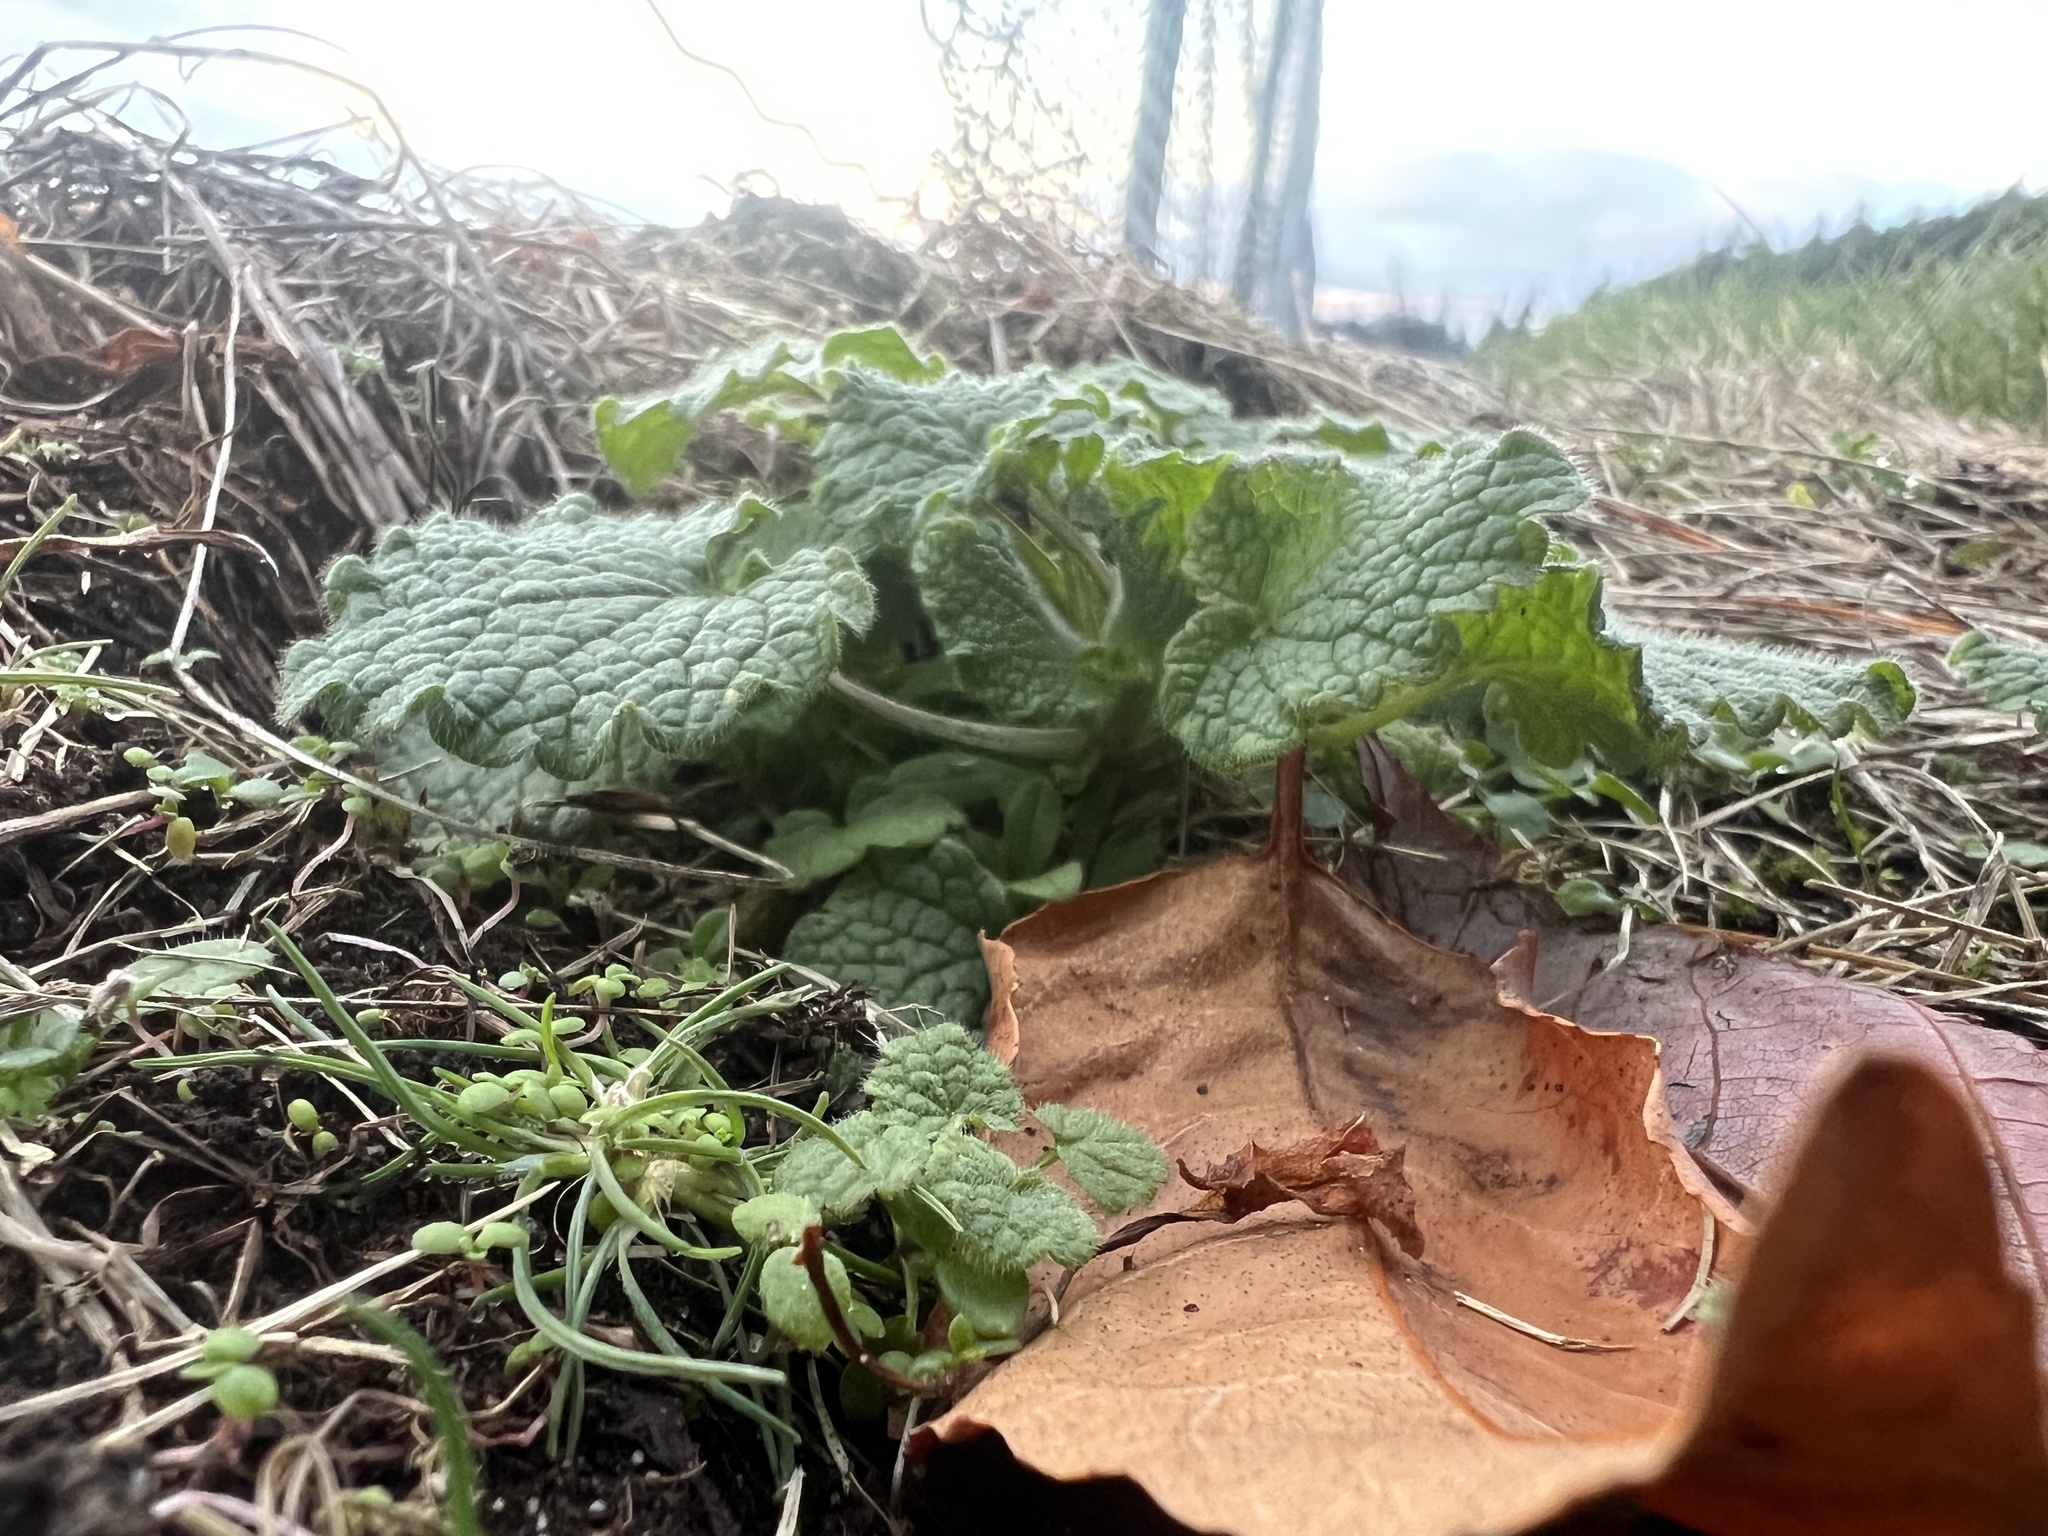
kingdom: Plantae
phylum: Tracheophyta
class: Magnoliopsida
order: Lamiales
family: Lamiaceae
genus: Lamium
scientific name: Lamium purpureum
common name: Red dead-nettle
